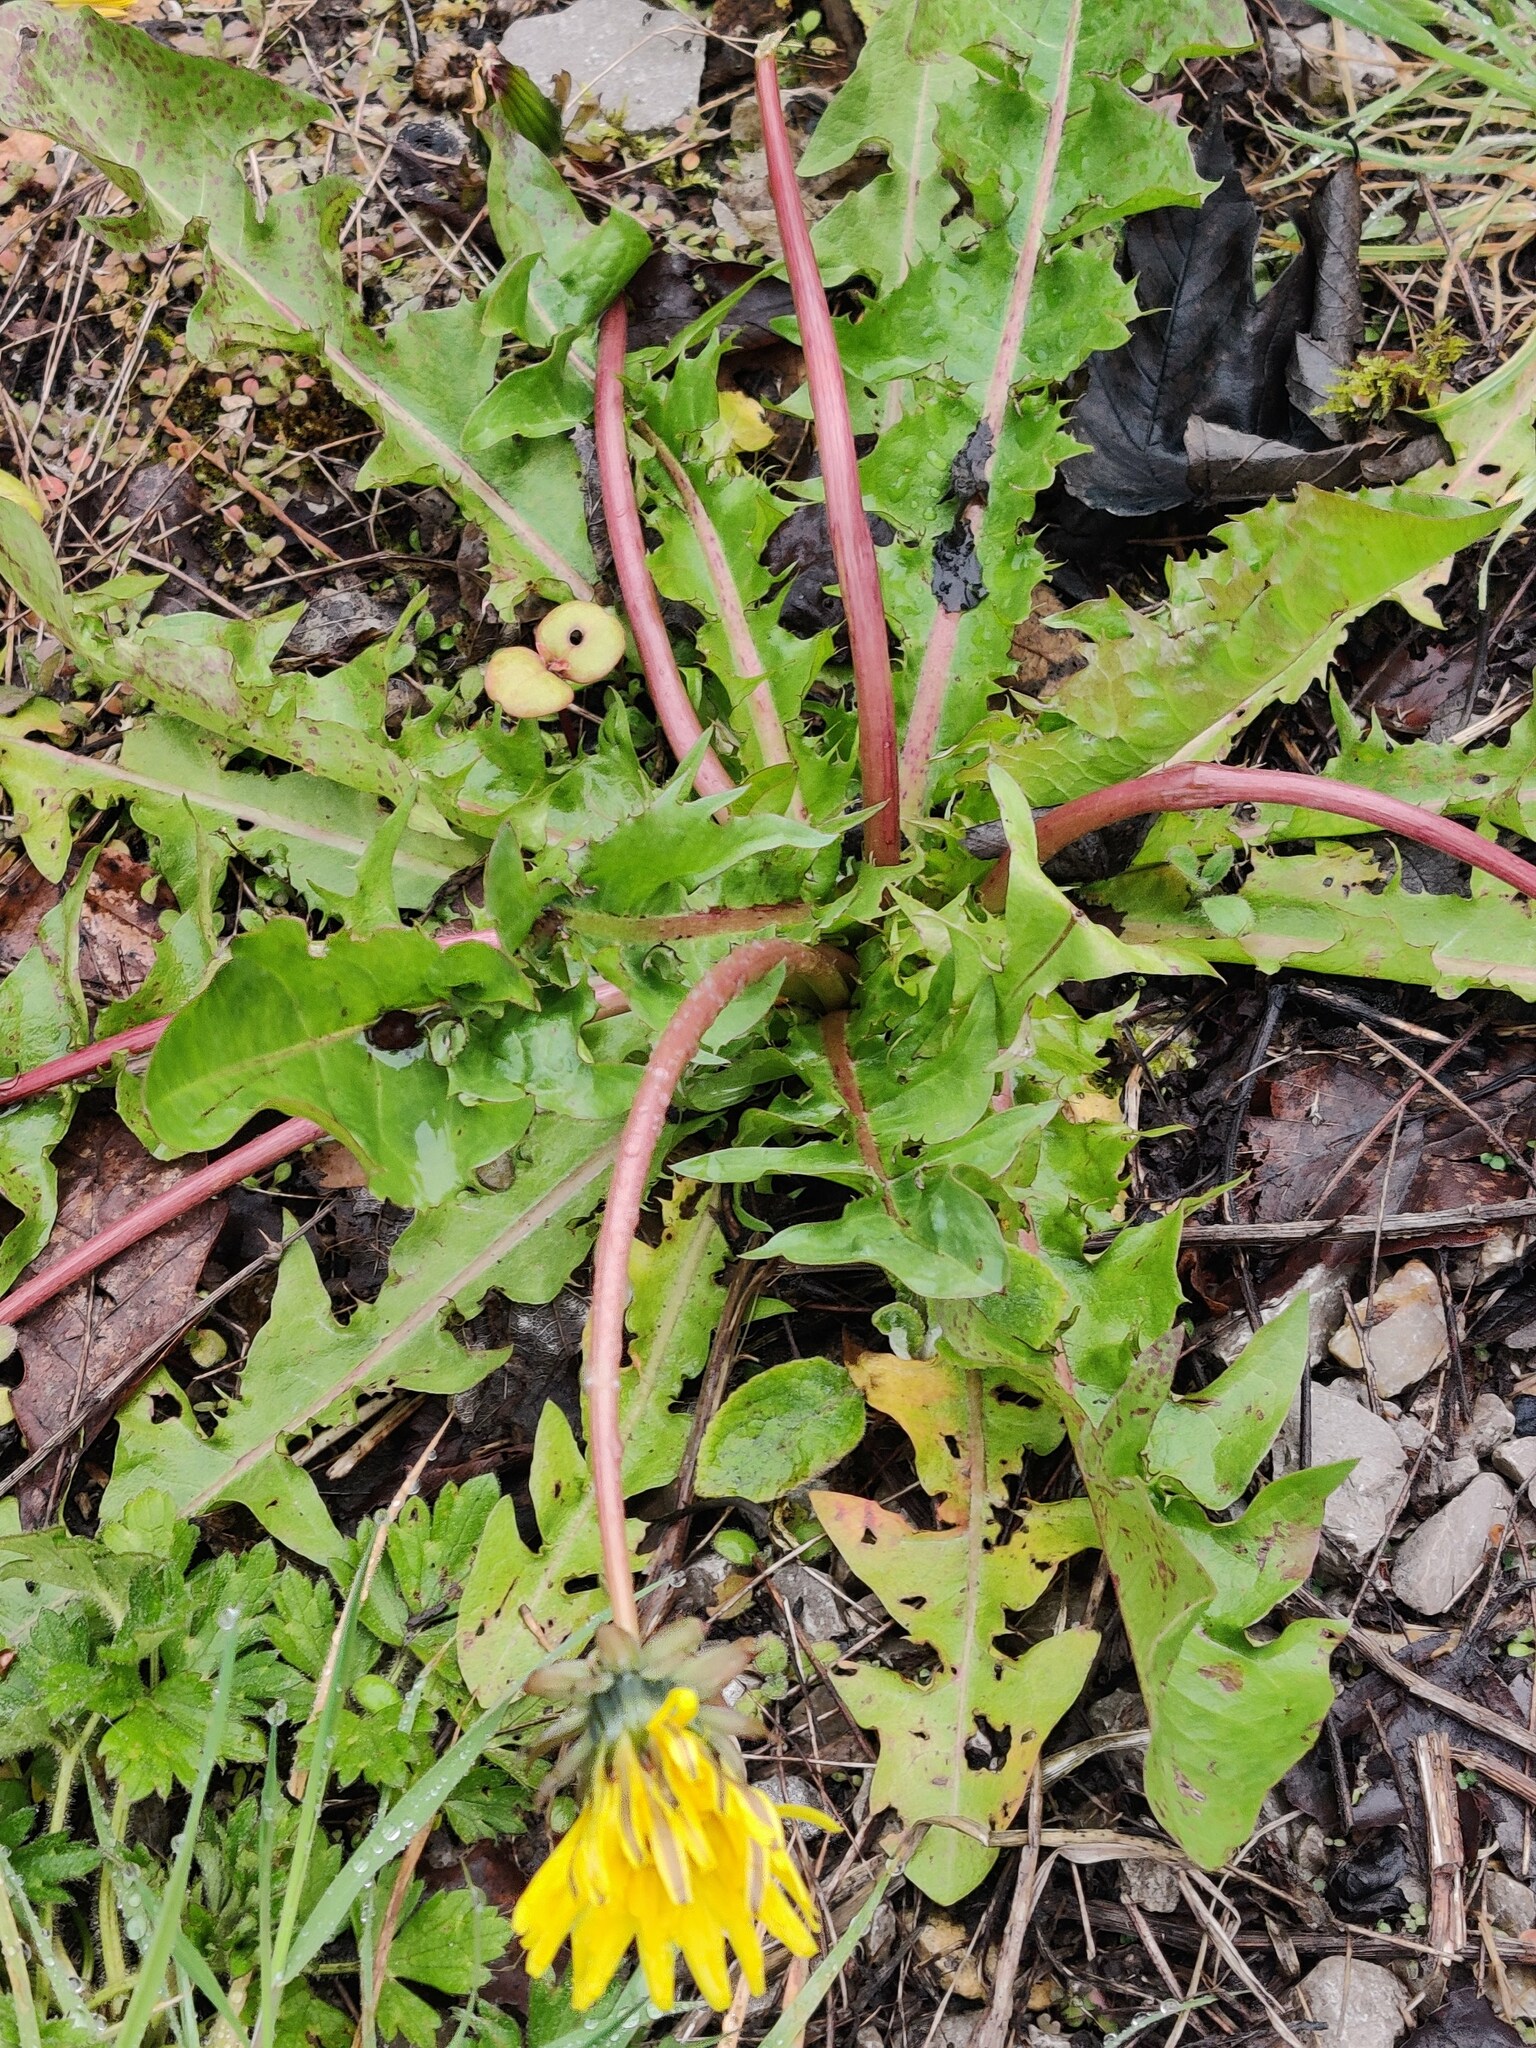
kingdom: Plantae
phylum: Tracheophyta
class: Magnoliopsida
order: Asterales
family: Asteraceae
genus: Taraxacum
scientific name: Taraxacum officinale
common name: Common dandelion
